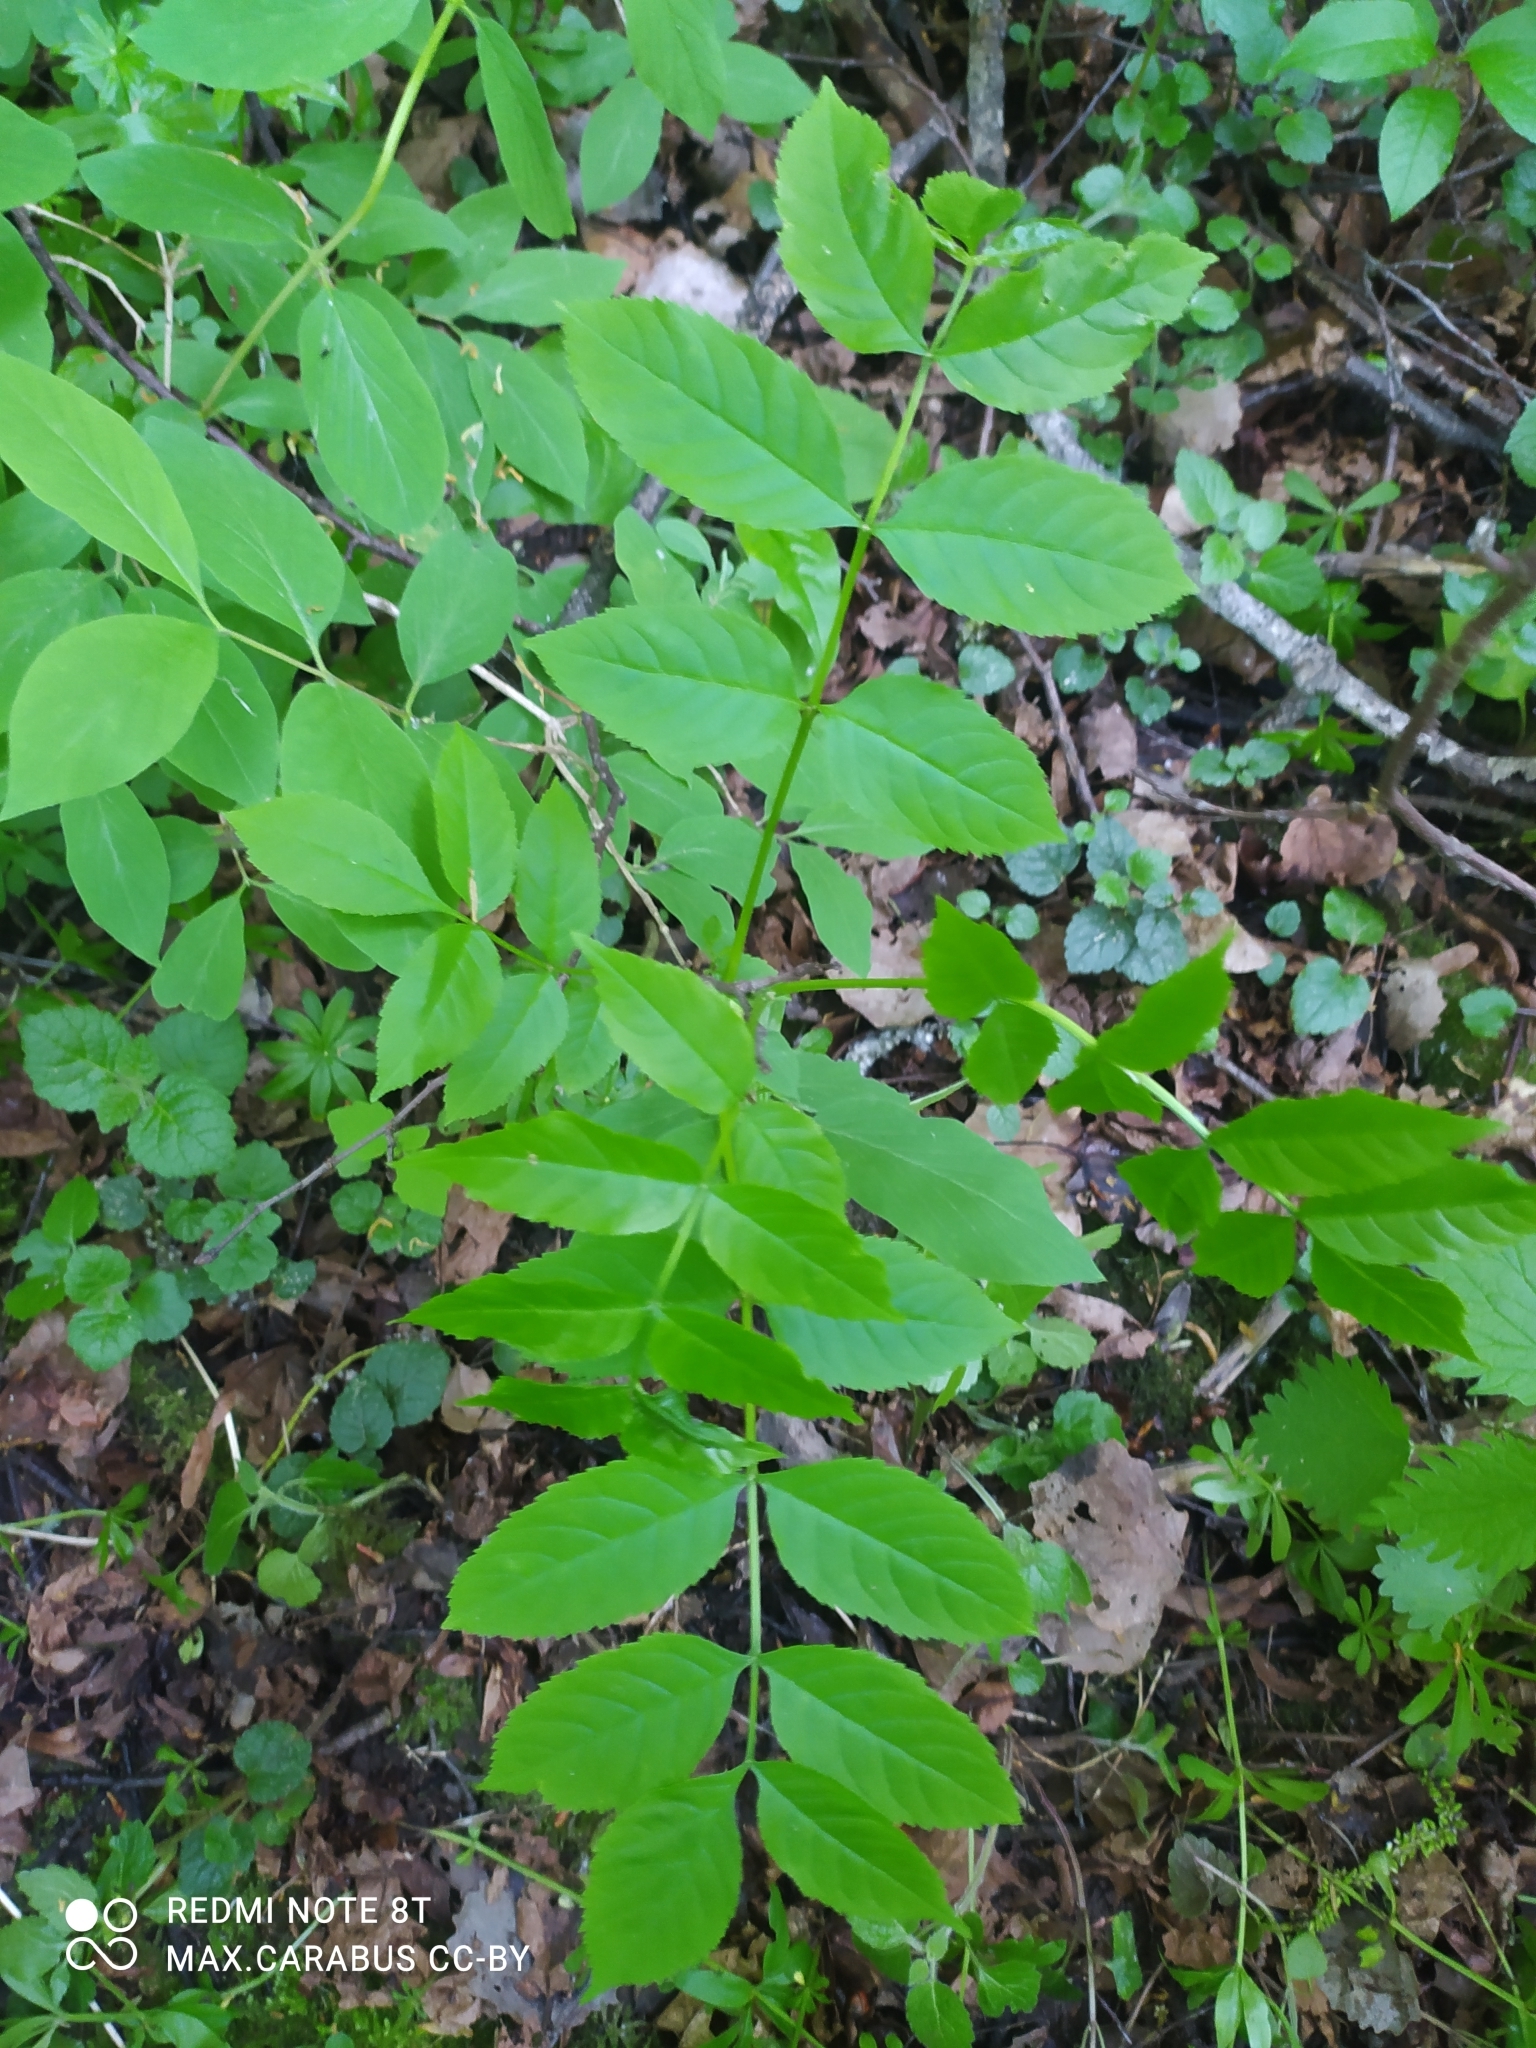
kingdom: Plantae
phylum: Tracheophyta
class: Magnoliopsida
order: Lamiales
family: Oleaceae
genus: Fraxinus
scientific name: Fraxinus excelsior
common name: European ash
